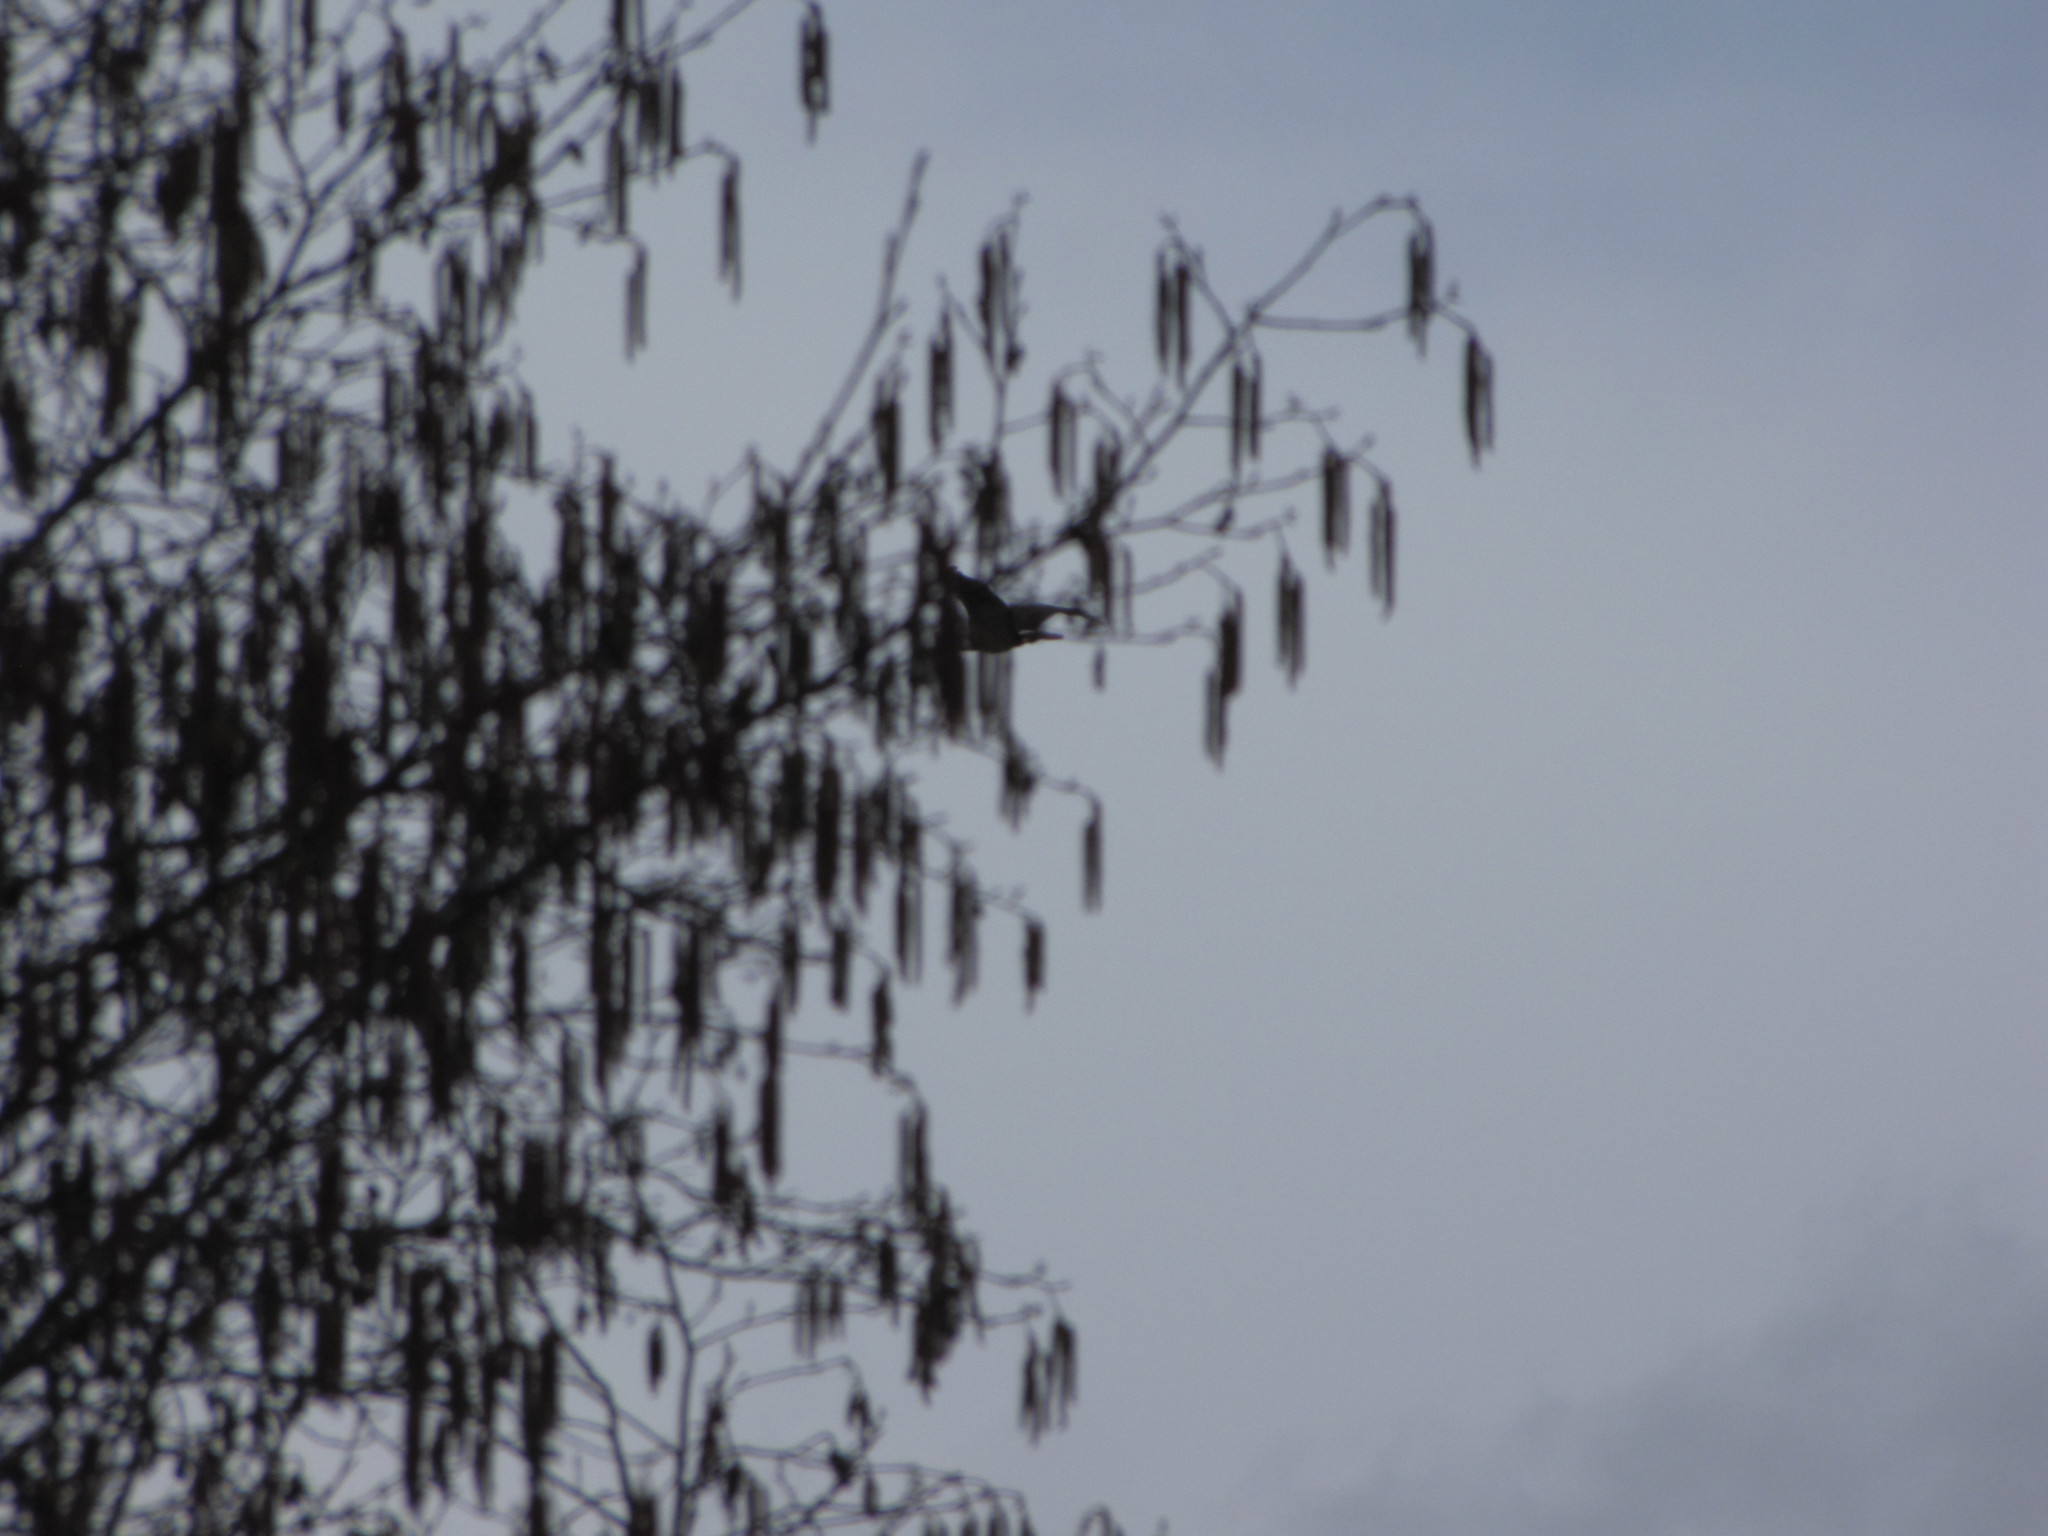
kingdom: Animalia
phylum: Chordata
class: Aves
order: Accipitriformes
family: Accipitridae
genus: Haliaeetus
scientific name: Haliaeetus leucocephalus
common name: Bald eagle
